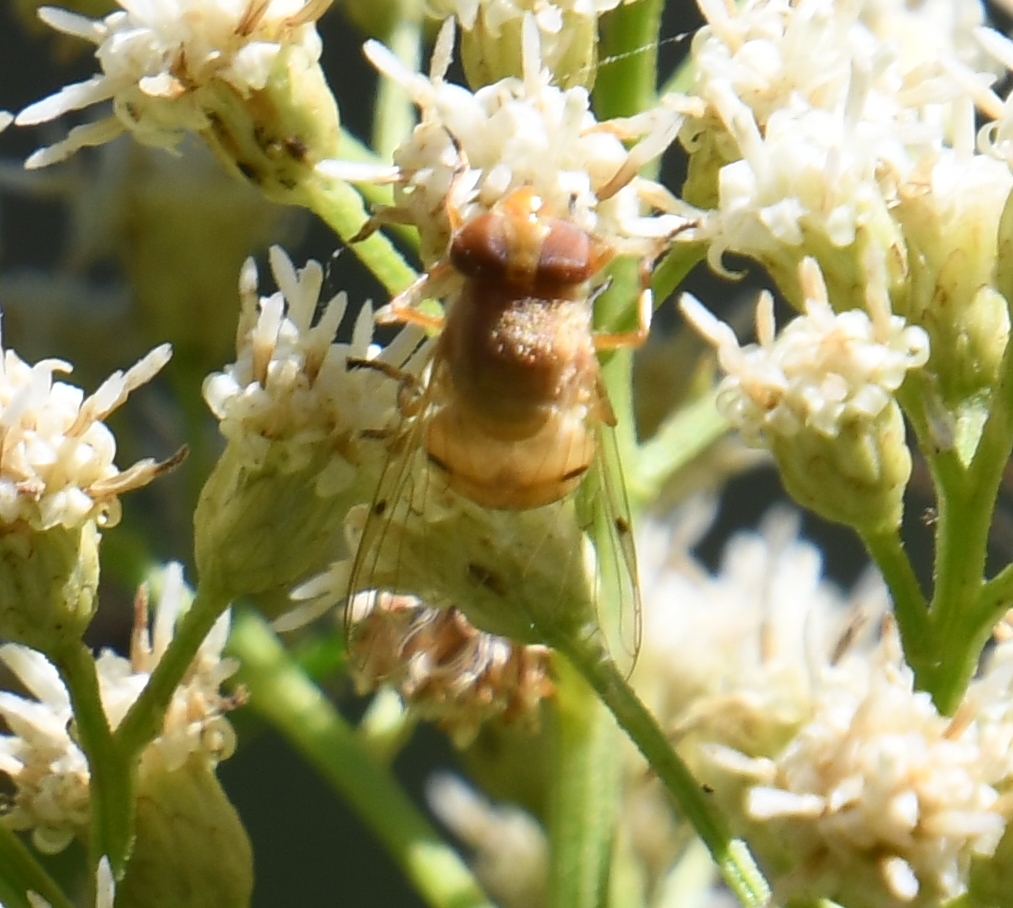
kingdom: Animalia
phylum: Arthropoda
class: Insecta
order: Diptera
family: Syrphidae
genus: Copestylum
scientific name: Copestylum sexmaculatum
